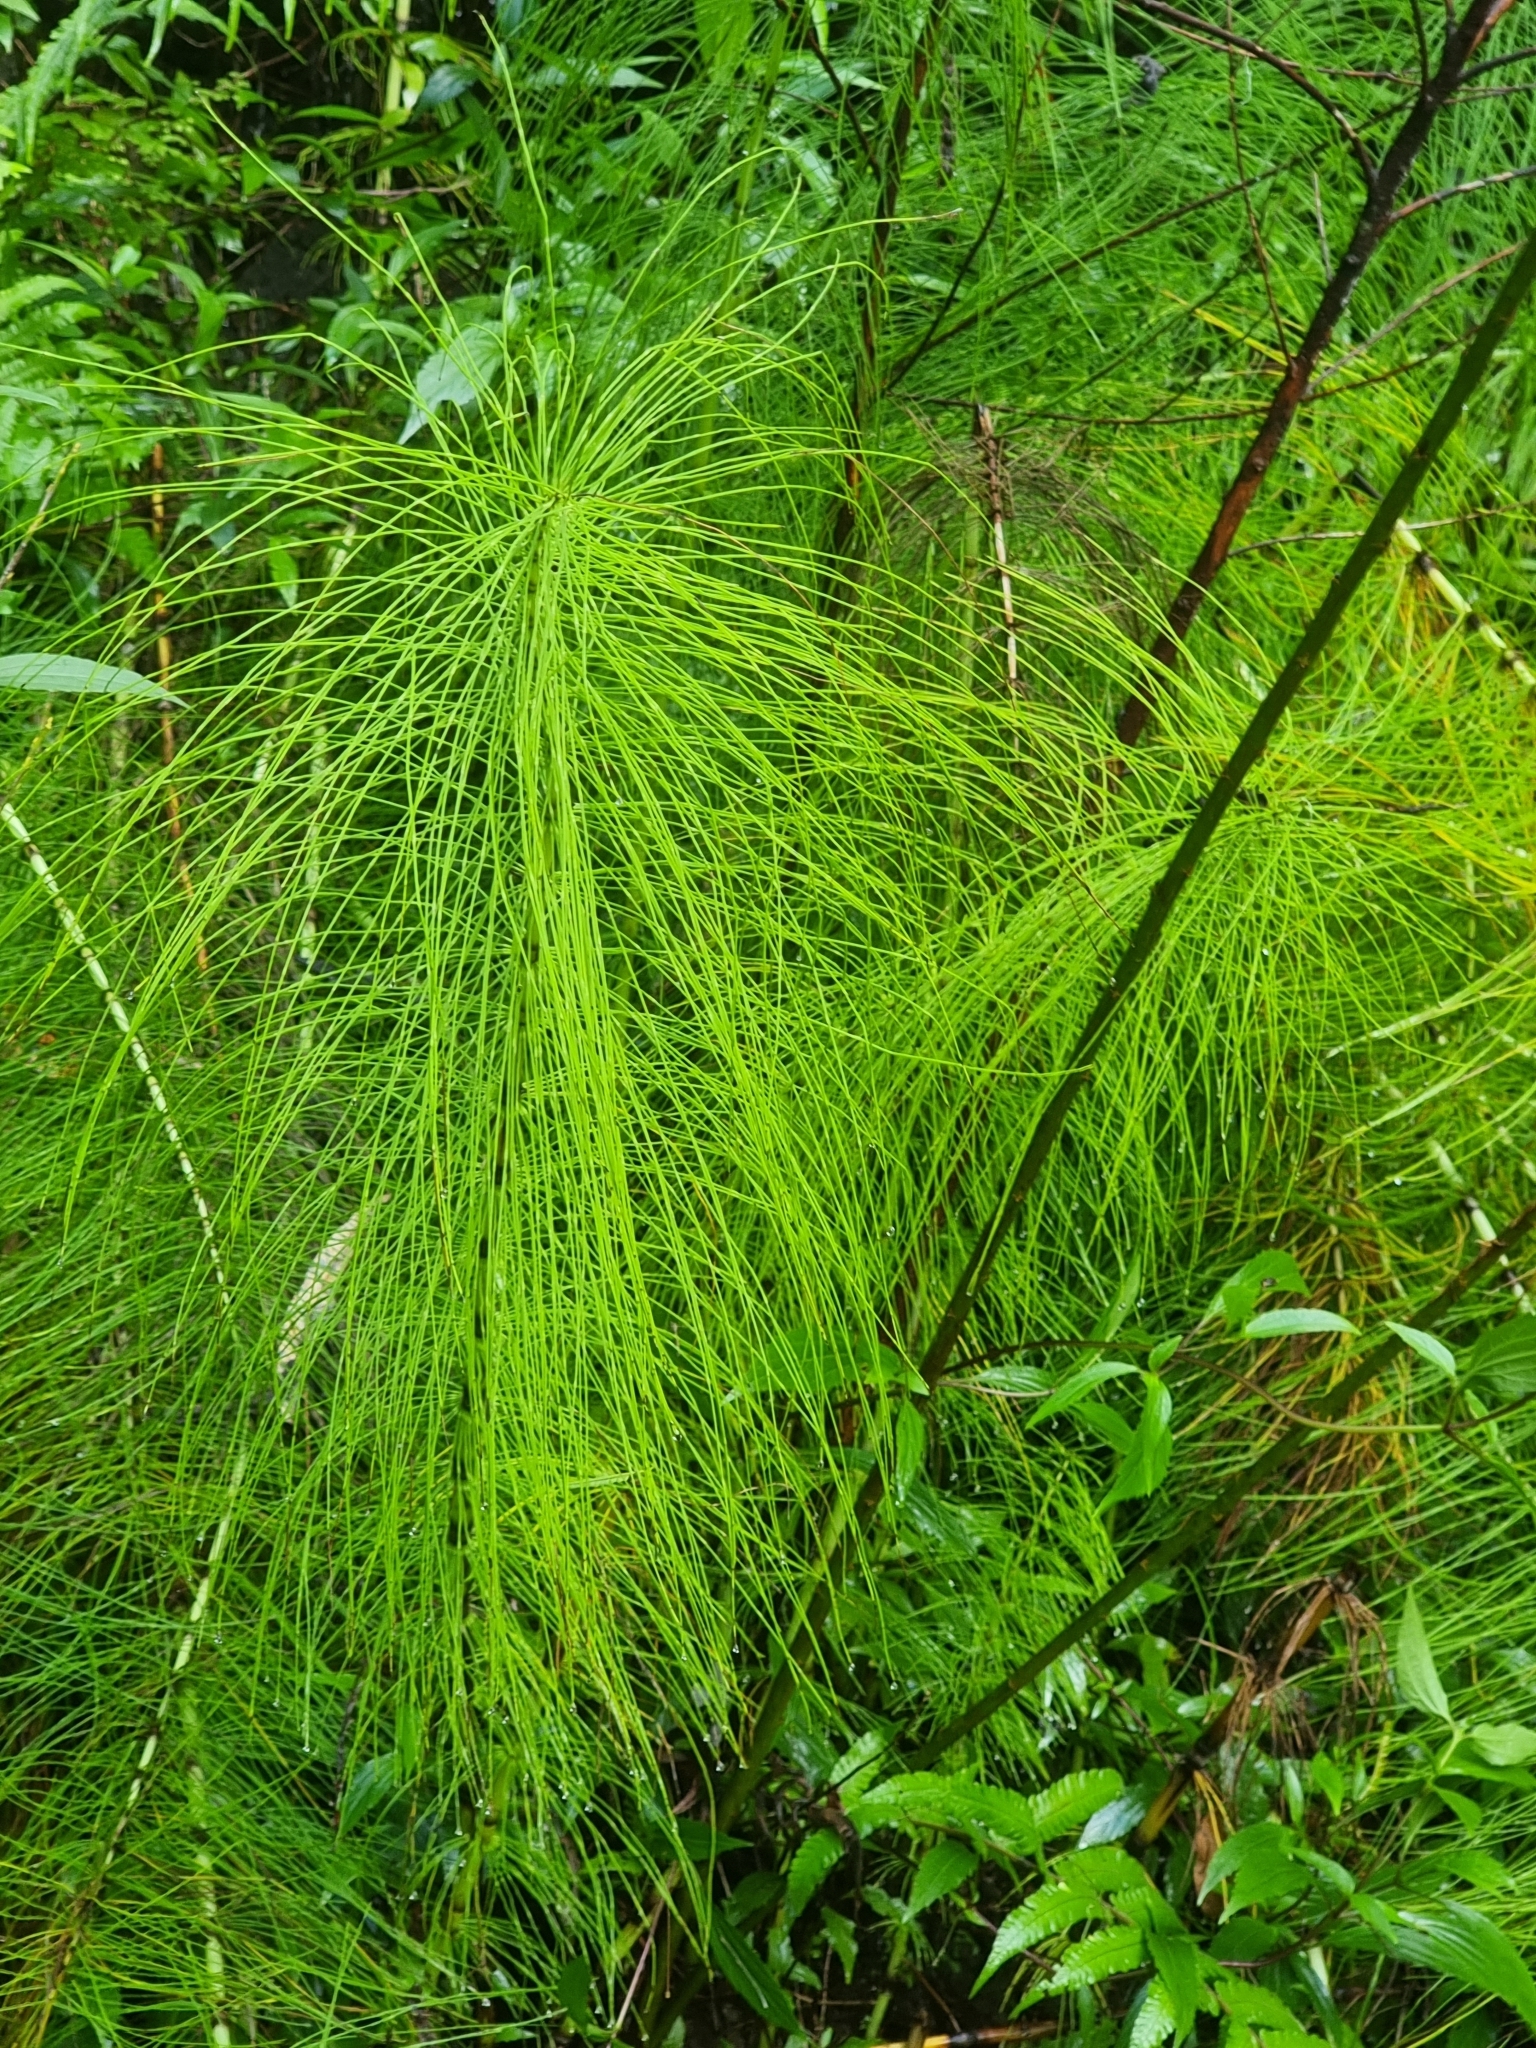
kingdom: Plantae
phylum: Tracheophyta
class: Polypodiopsida
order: Equisetales
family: Equisetaceae
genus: Equisetum
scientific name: Equisetum telmateia
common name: Great horsetail
